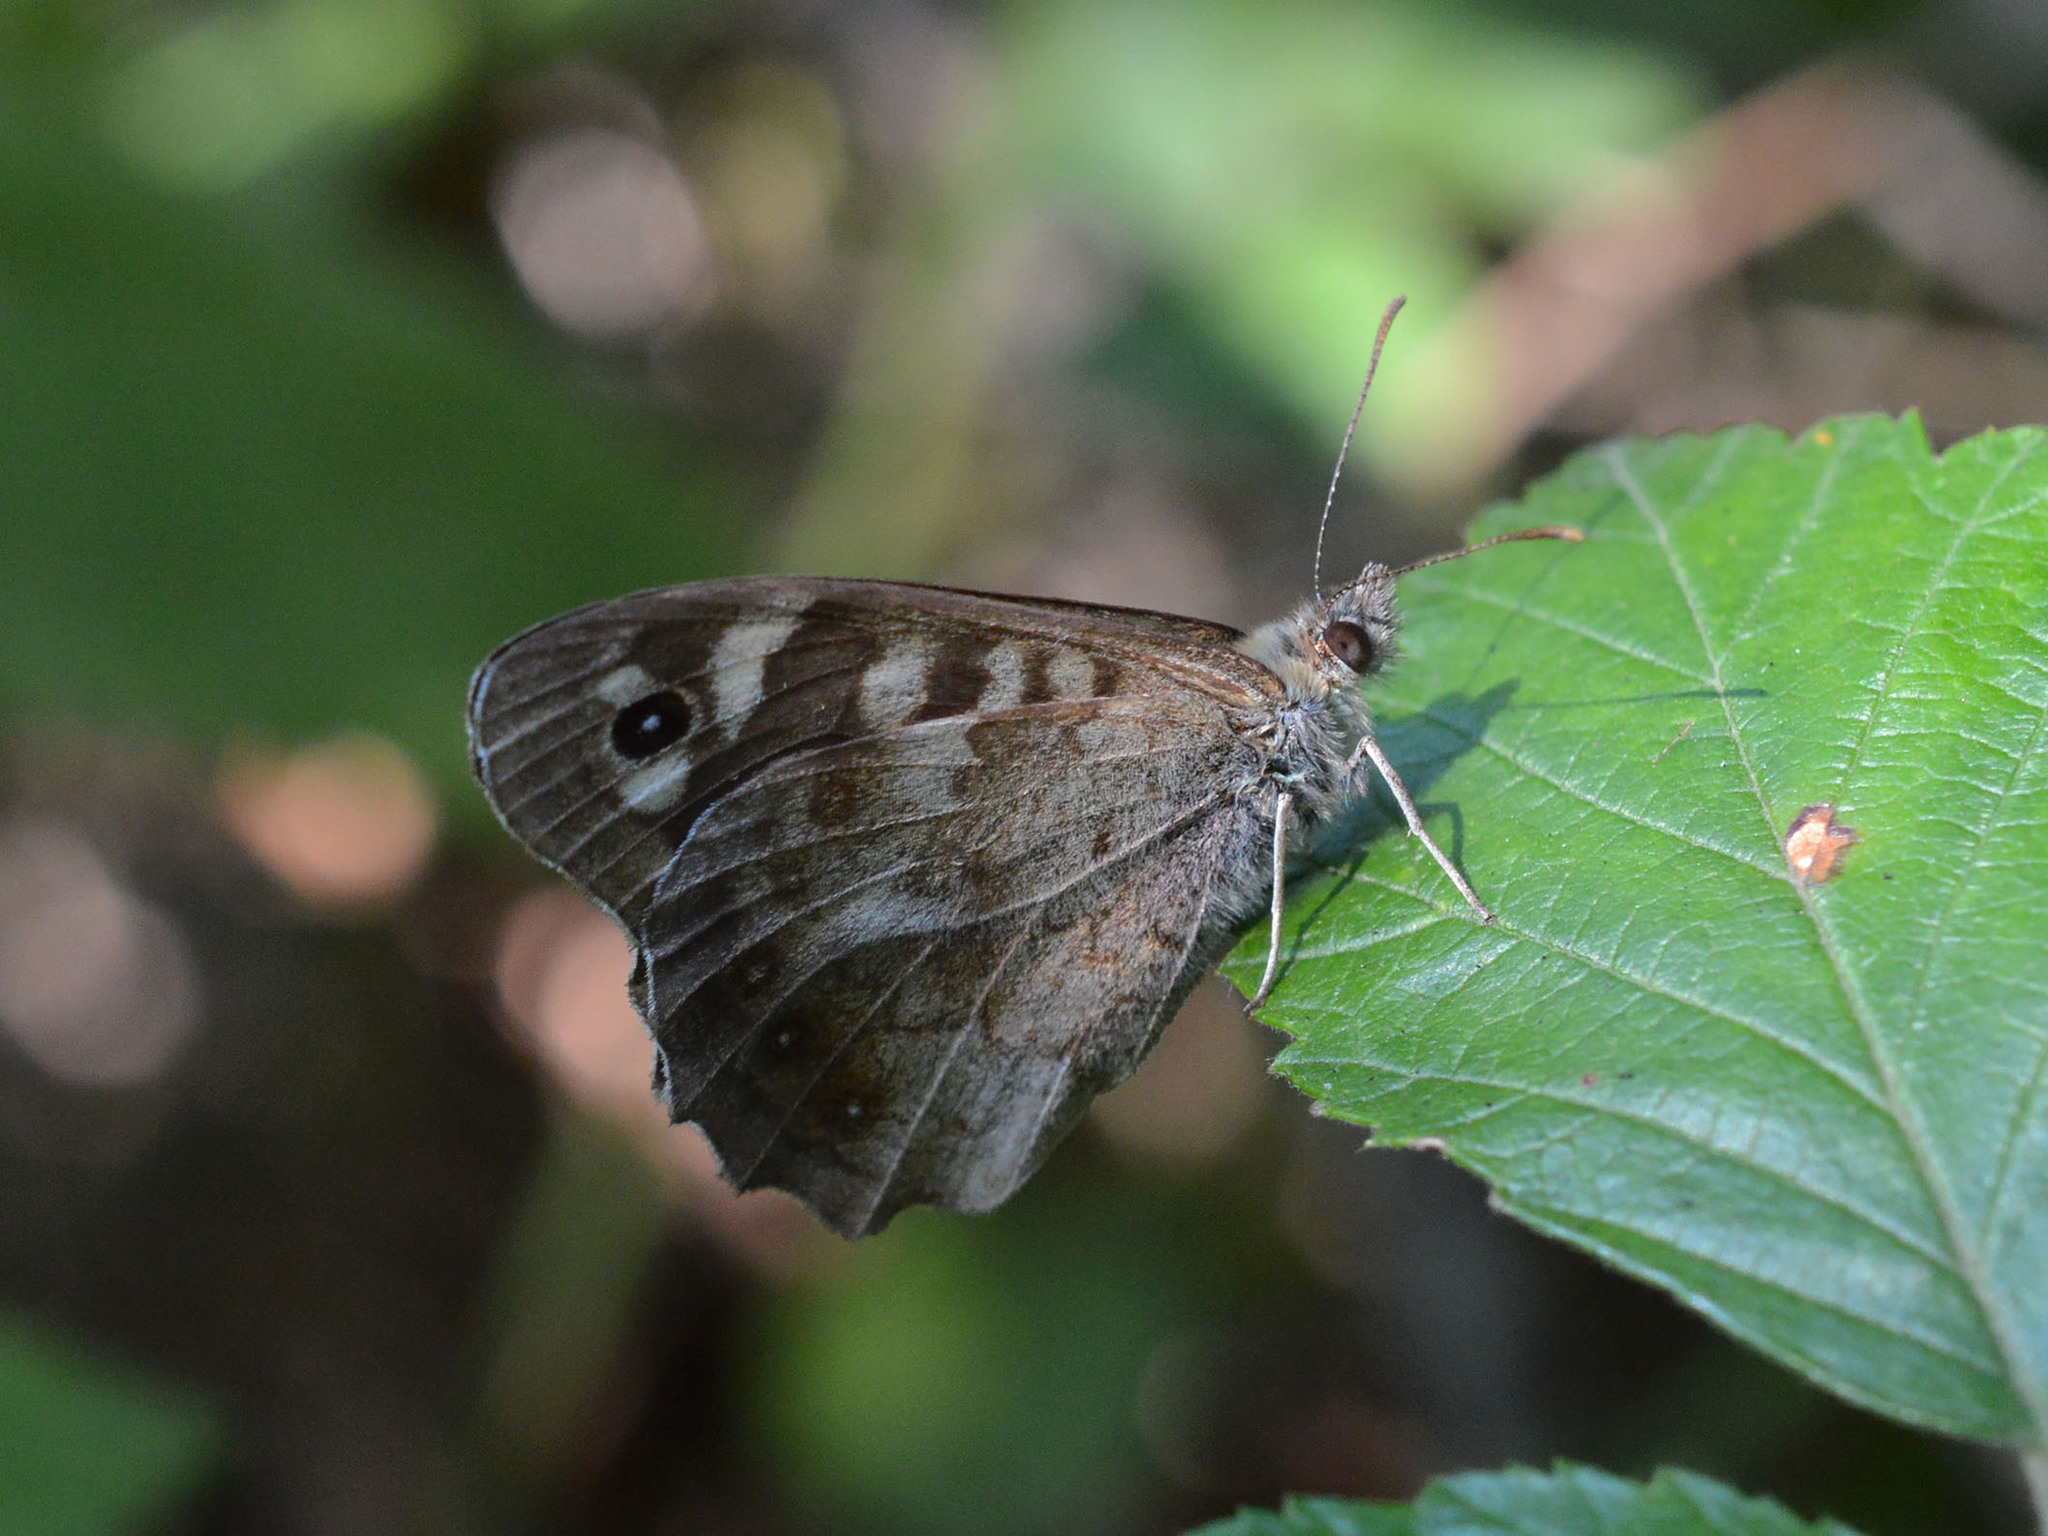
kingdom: Animalia
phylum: Arthropoda
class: Insecta
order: Lepidoptera
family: Nymphalidae
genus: Pararge
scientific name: Pararge aegeria
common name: Speckled wood
